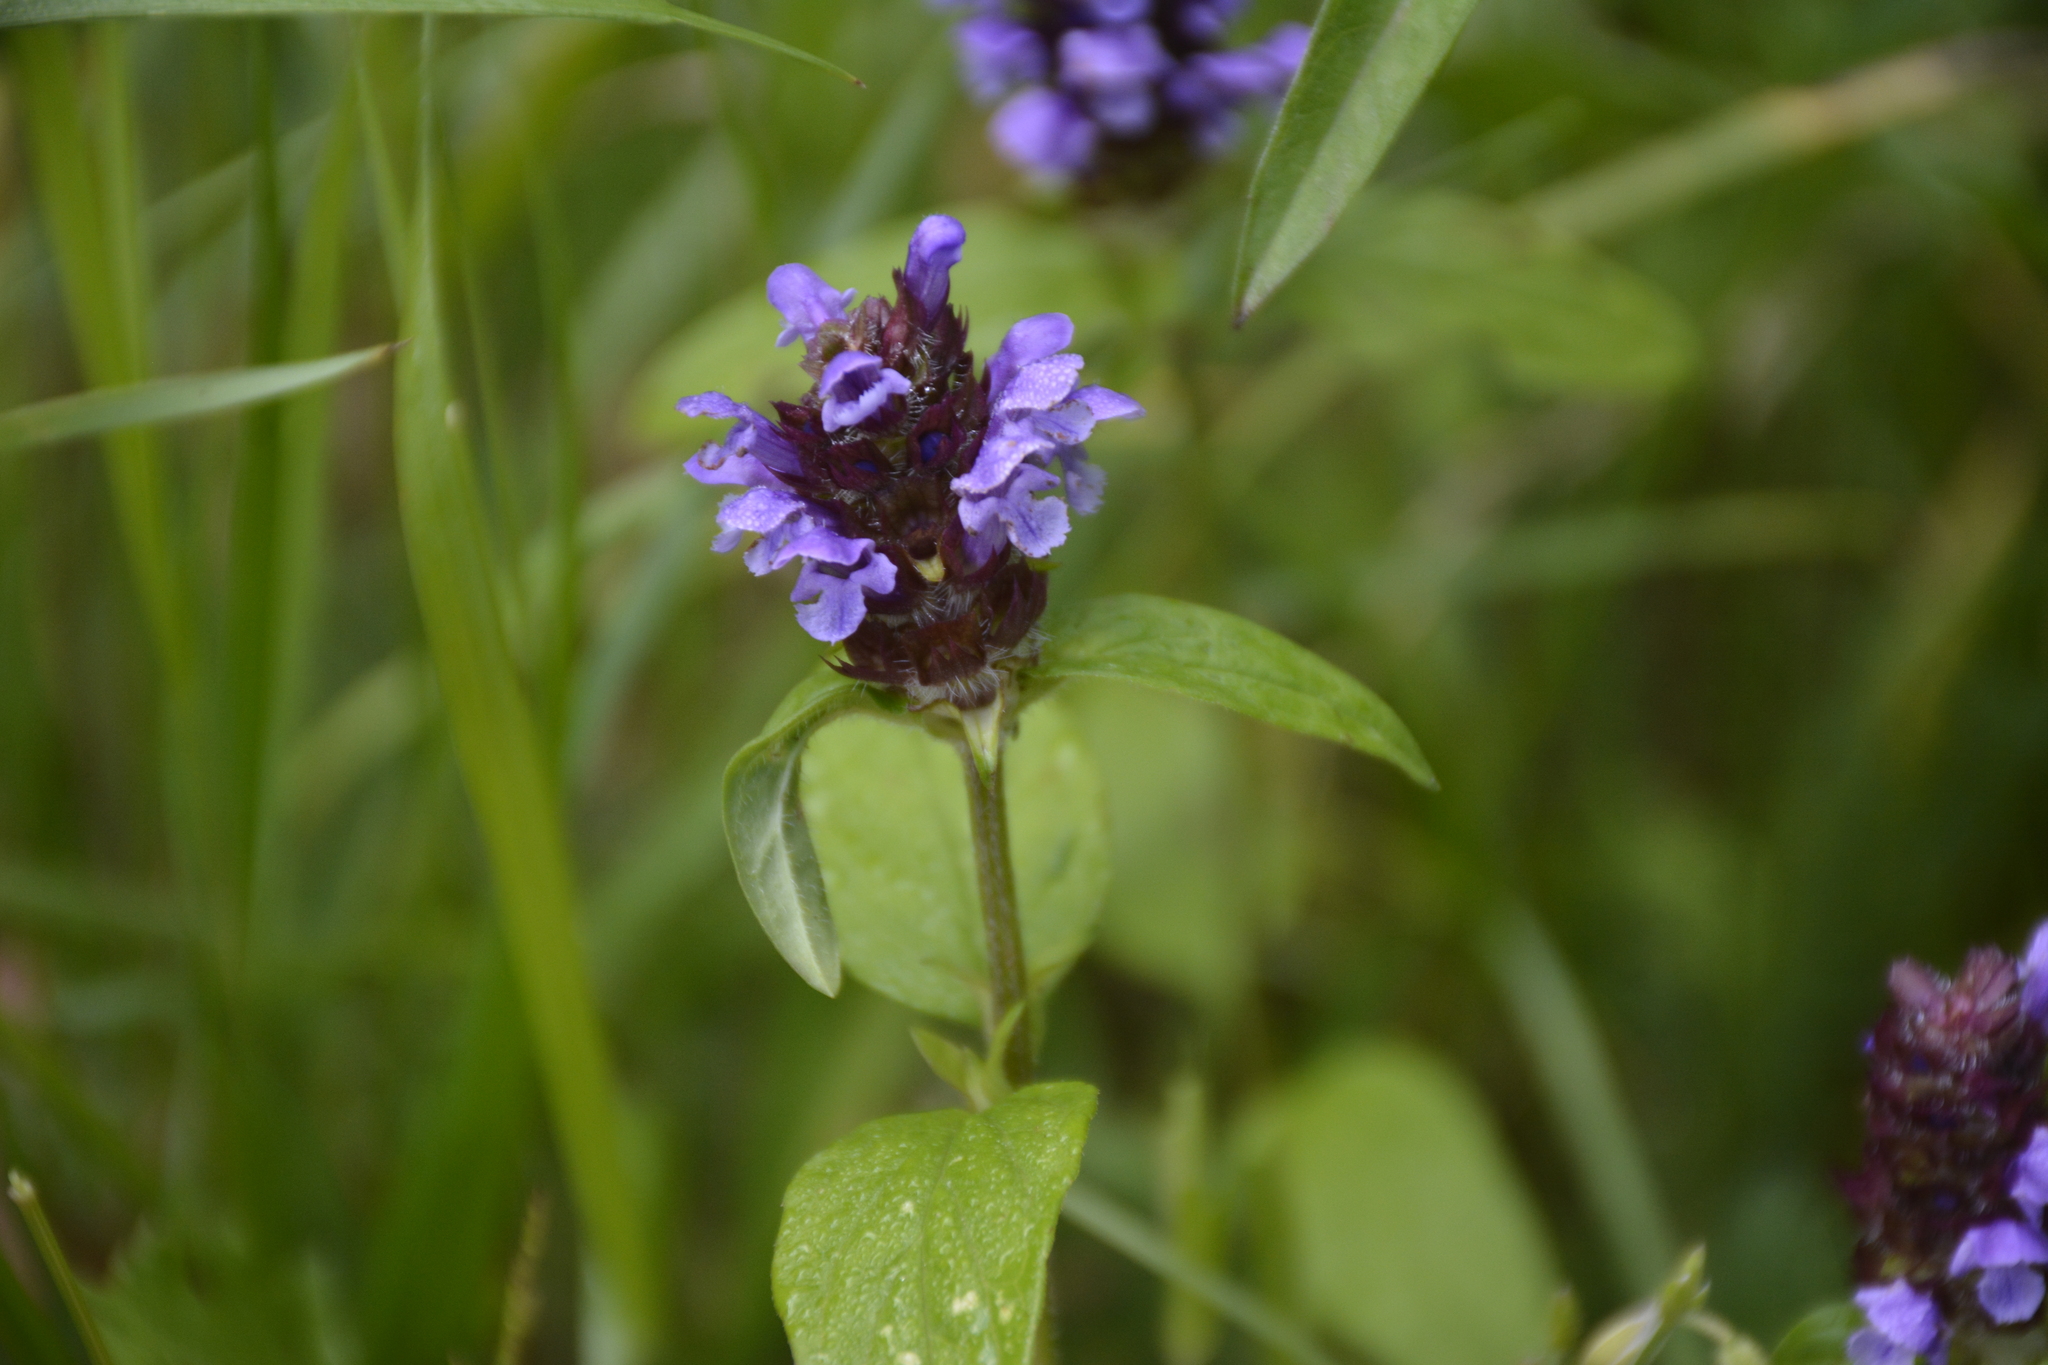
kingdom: Plantae
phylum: Tracheophyta
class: Magnoliopsida
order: Lamiales
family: Lamiaceae
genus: Prunella
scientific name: Prunella vulgaris
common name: Heal-all
